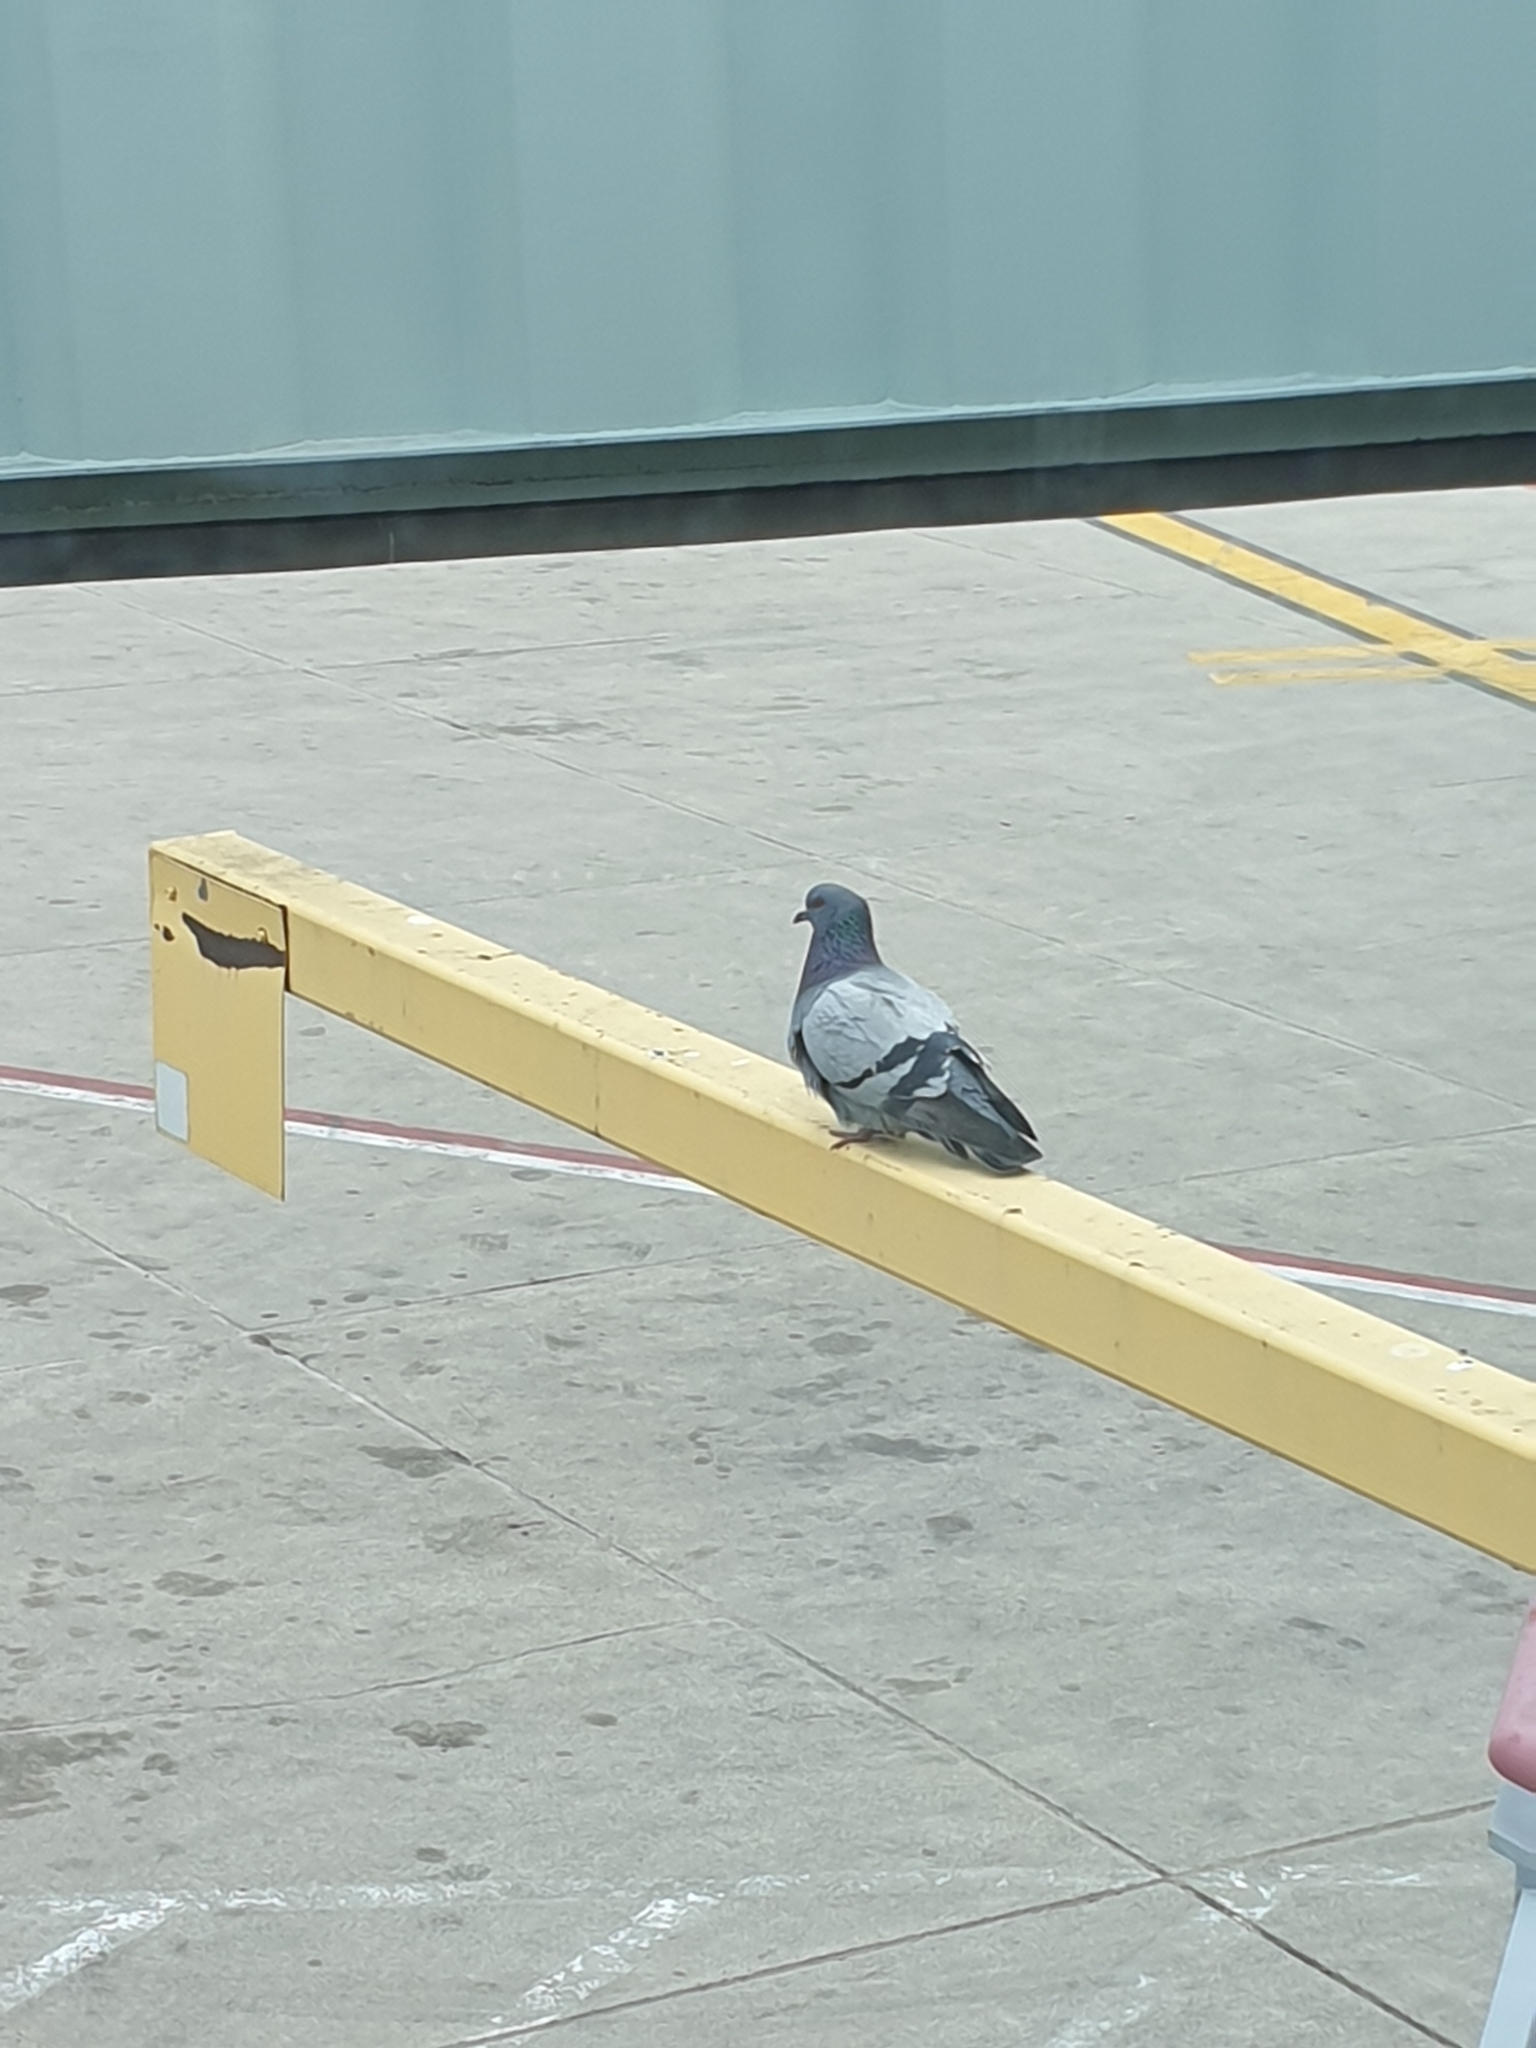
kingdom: Animalia
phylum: Chordata
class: Aves
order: Columbiformes
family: Columbidae
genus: Columba
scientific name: Columba livia
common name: Rock pigeon
